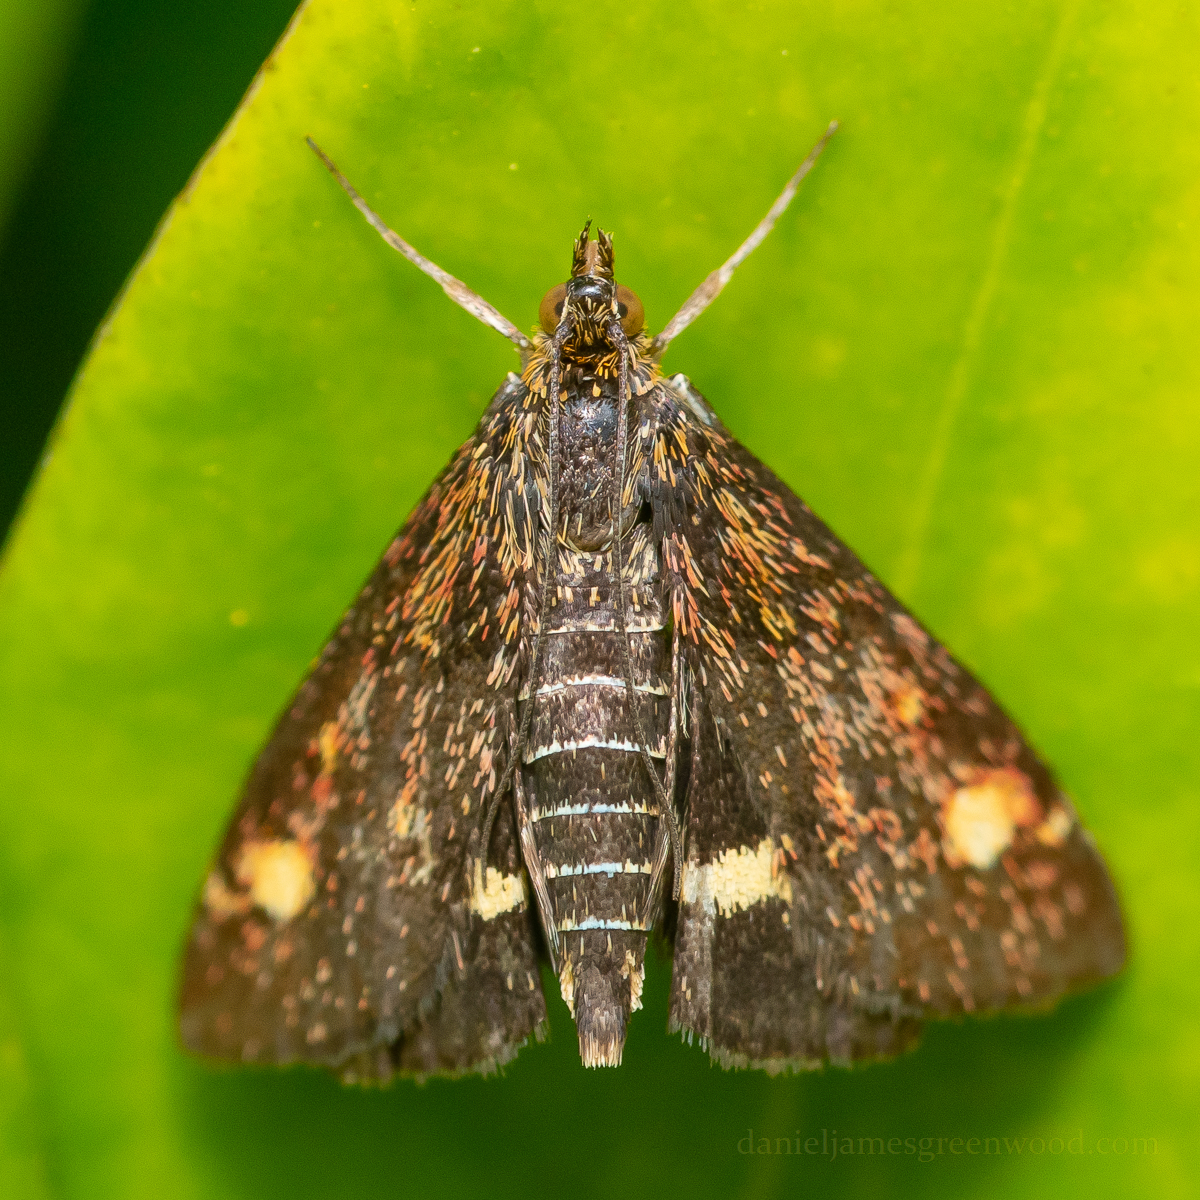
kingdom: Animalia
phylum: Arthropoda
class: Insecta
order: Lepidoptera
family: Crambidae
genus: Pyrausta
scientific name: Pyrausta aurata
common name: Small purple & gold
